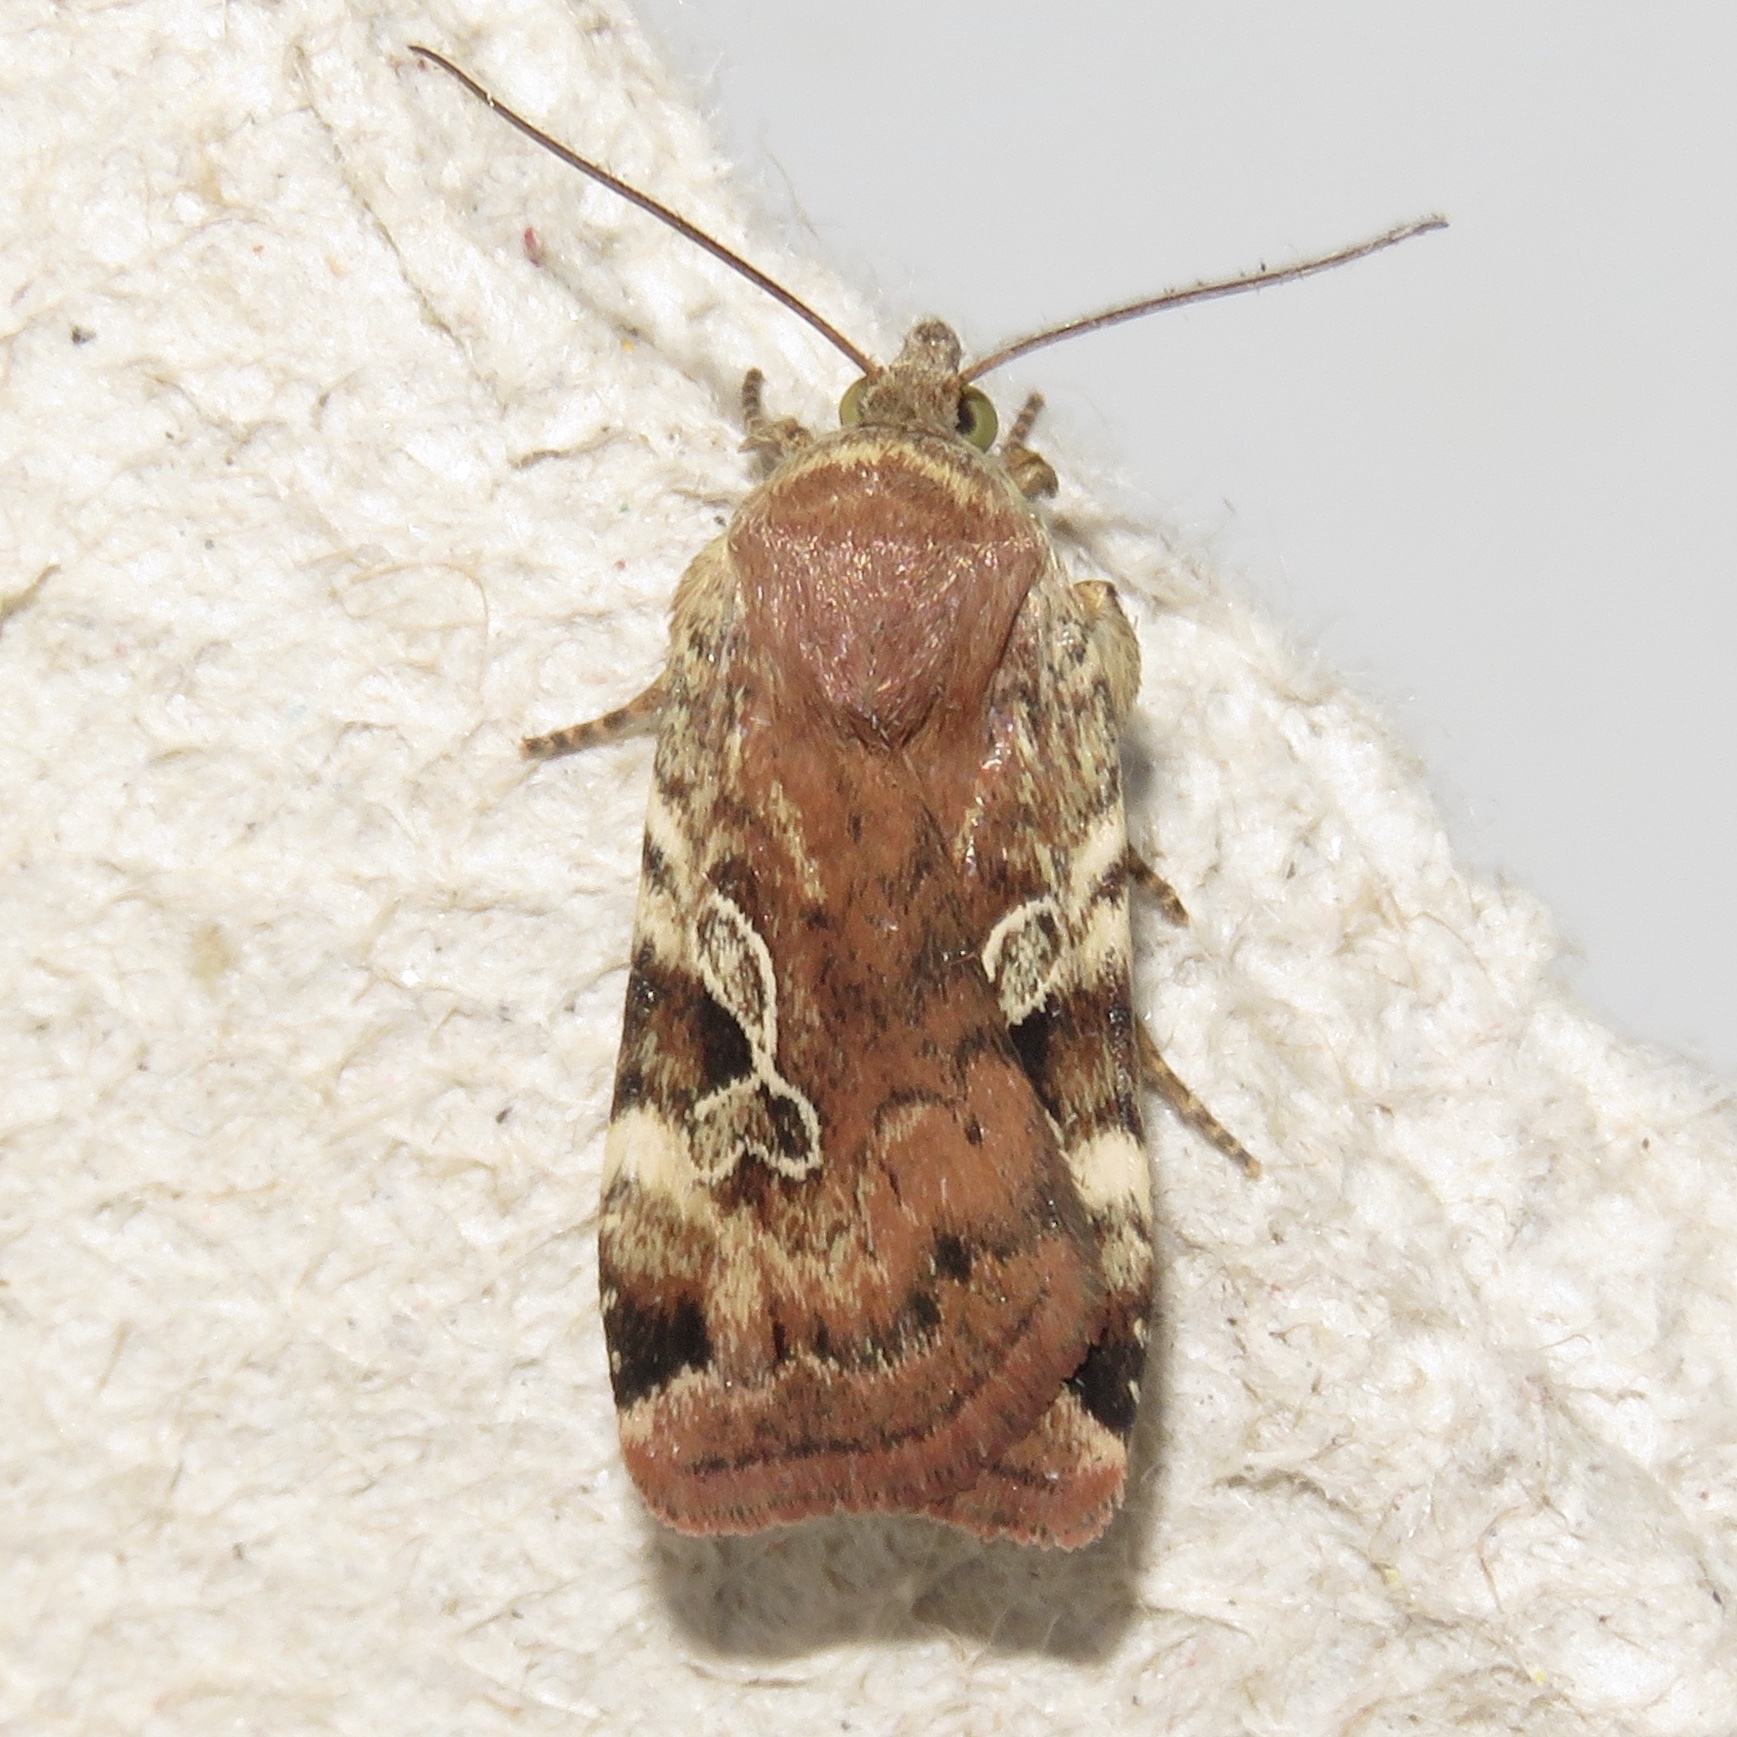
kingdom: Animalia
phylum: Arthropoda
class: Insecta
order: Lepidoptera
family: Noctuidae
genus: Cryptocala
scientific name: Cryptocala acadiensis
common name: Catocaline dart
